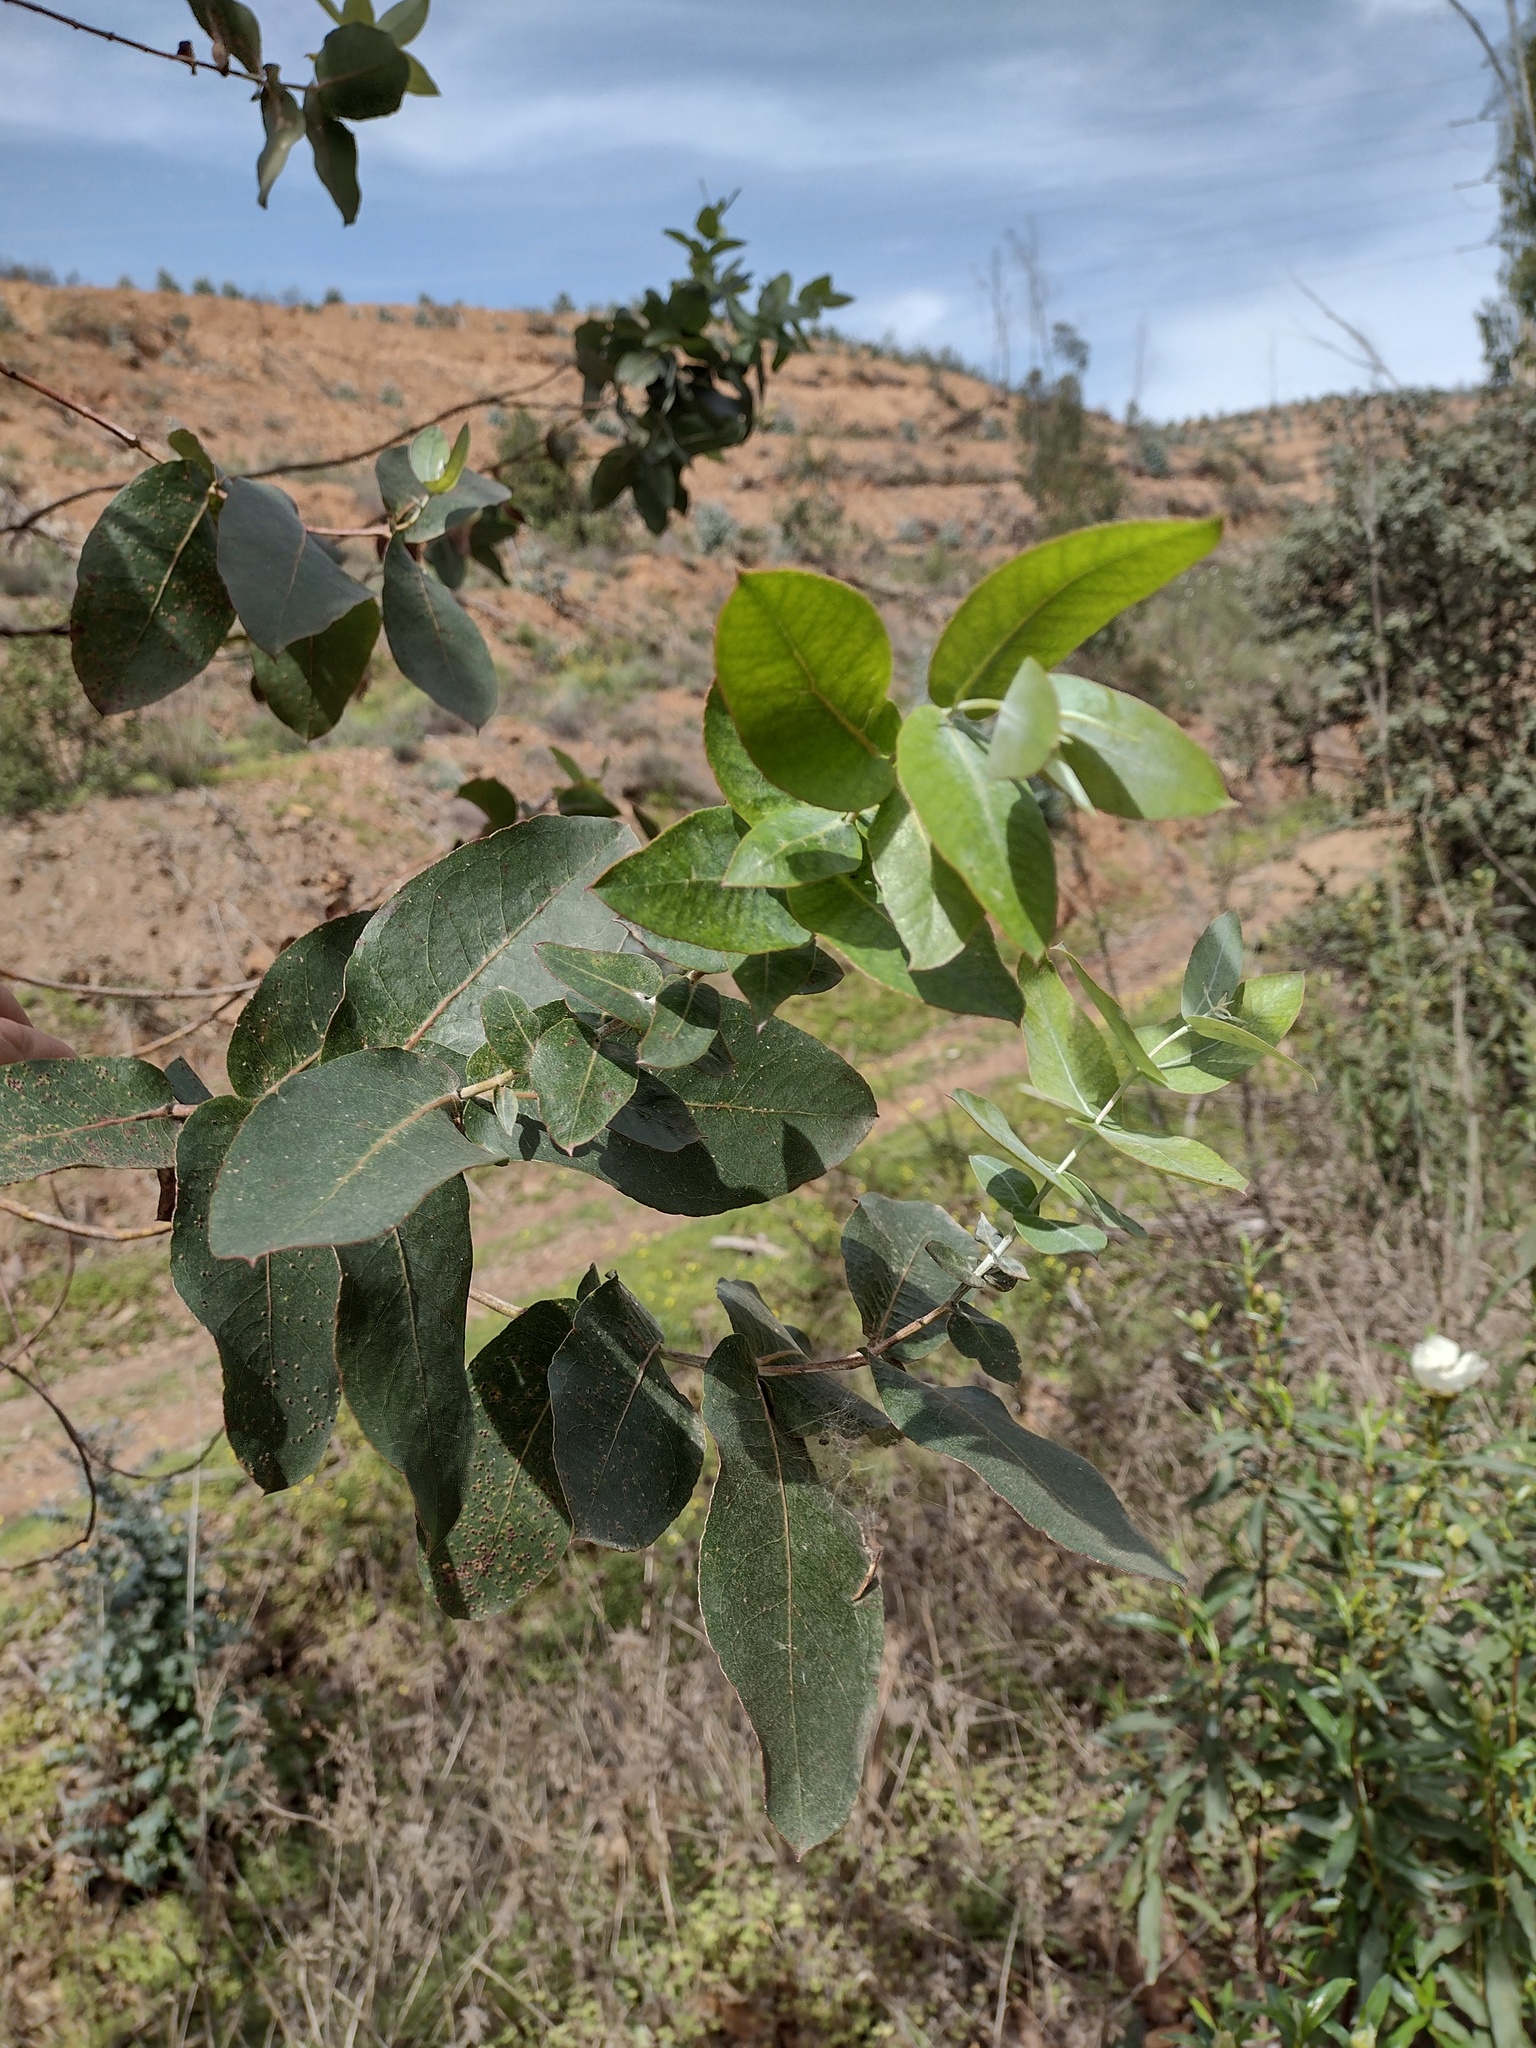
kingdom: Plantae
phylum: Tracheophyta
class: Magnoliopsida
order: Myrtales
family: Myrtaceae
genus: Eucalyptus
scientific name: Eucalyptus globulus
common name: Southern blue-gum
